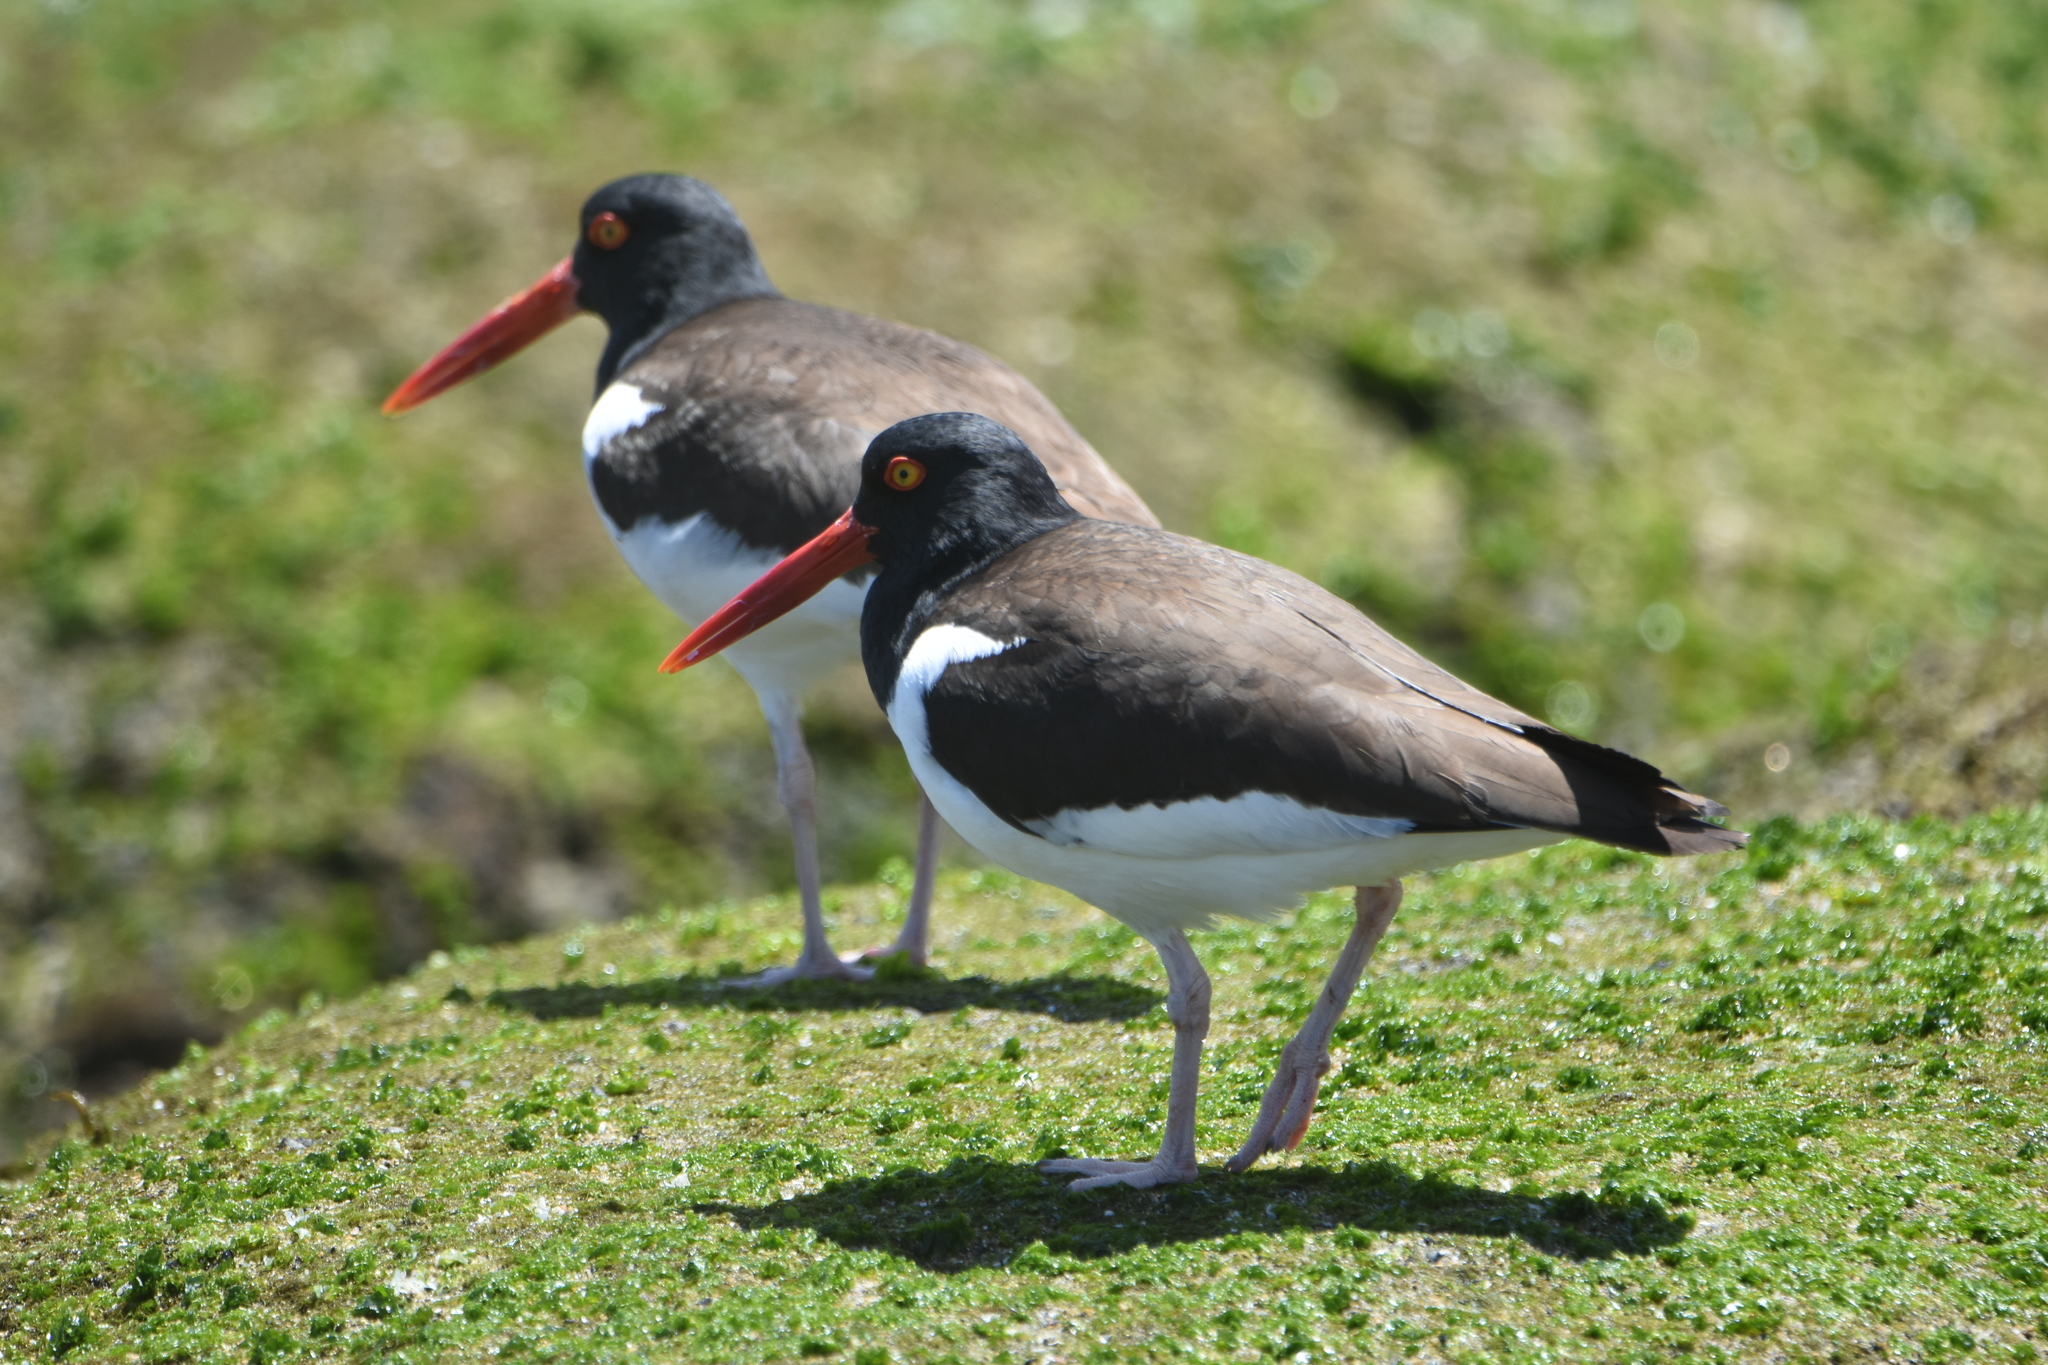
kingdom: Animalia
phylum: Chordata
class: Aves
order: Charadriiformes
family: Haematopodidae
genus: Haematopus
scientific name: Haematopus palliatus
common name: American oystercatcher
